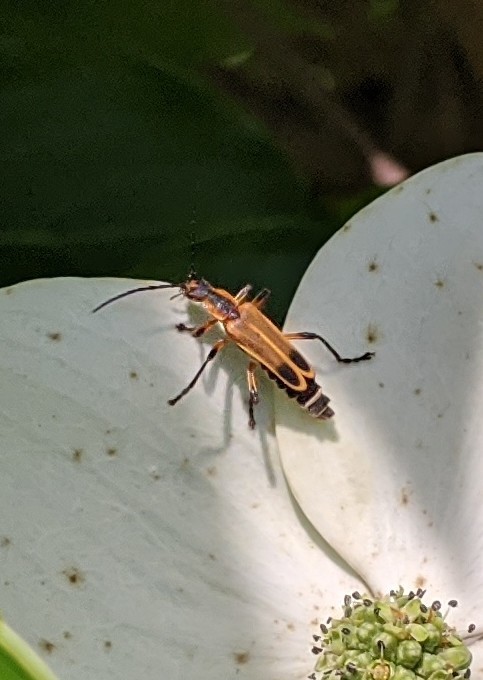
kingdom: Animalia
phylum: Arthropoda
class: Insecta
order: Coleoptera
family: Cantharidae
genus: Chauliognathus
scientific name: Chauliognathus marginatus
